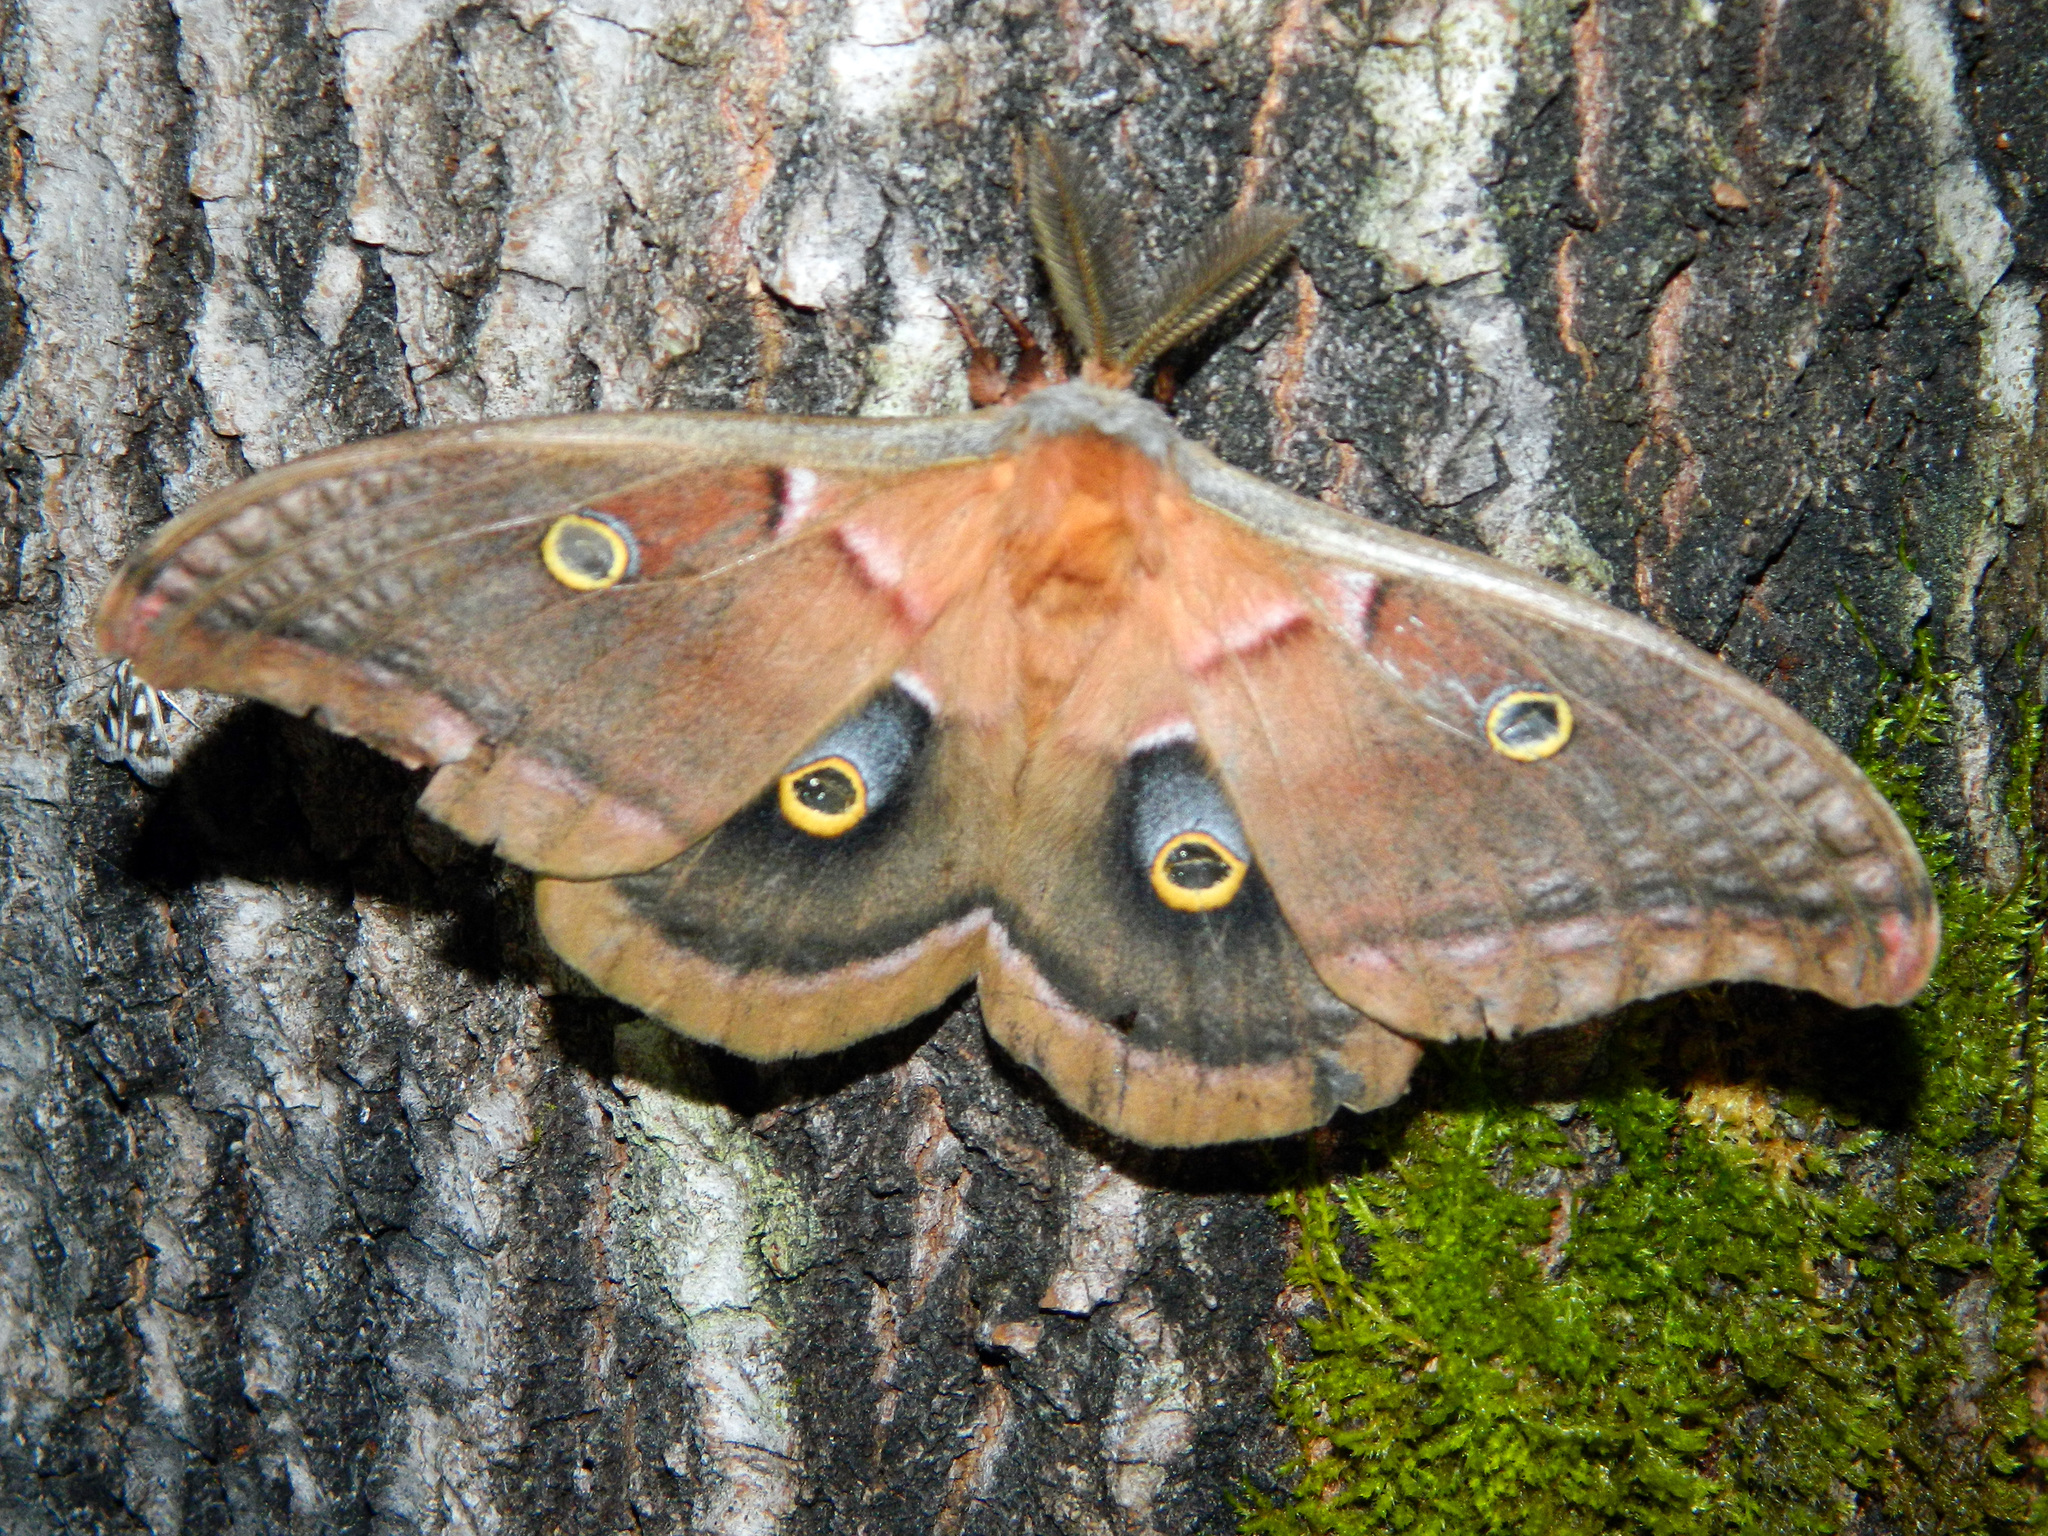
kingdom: Animalia
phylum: Arthropoda
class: Insecta
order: Lepidoptera
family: Saturniidae
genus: Antheraea
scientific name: Antheraea polyphemus
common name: Polyphemus moth
